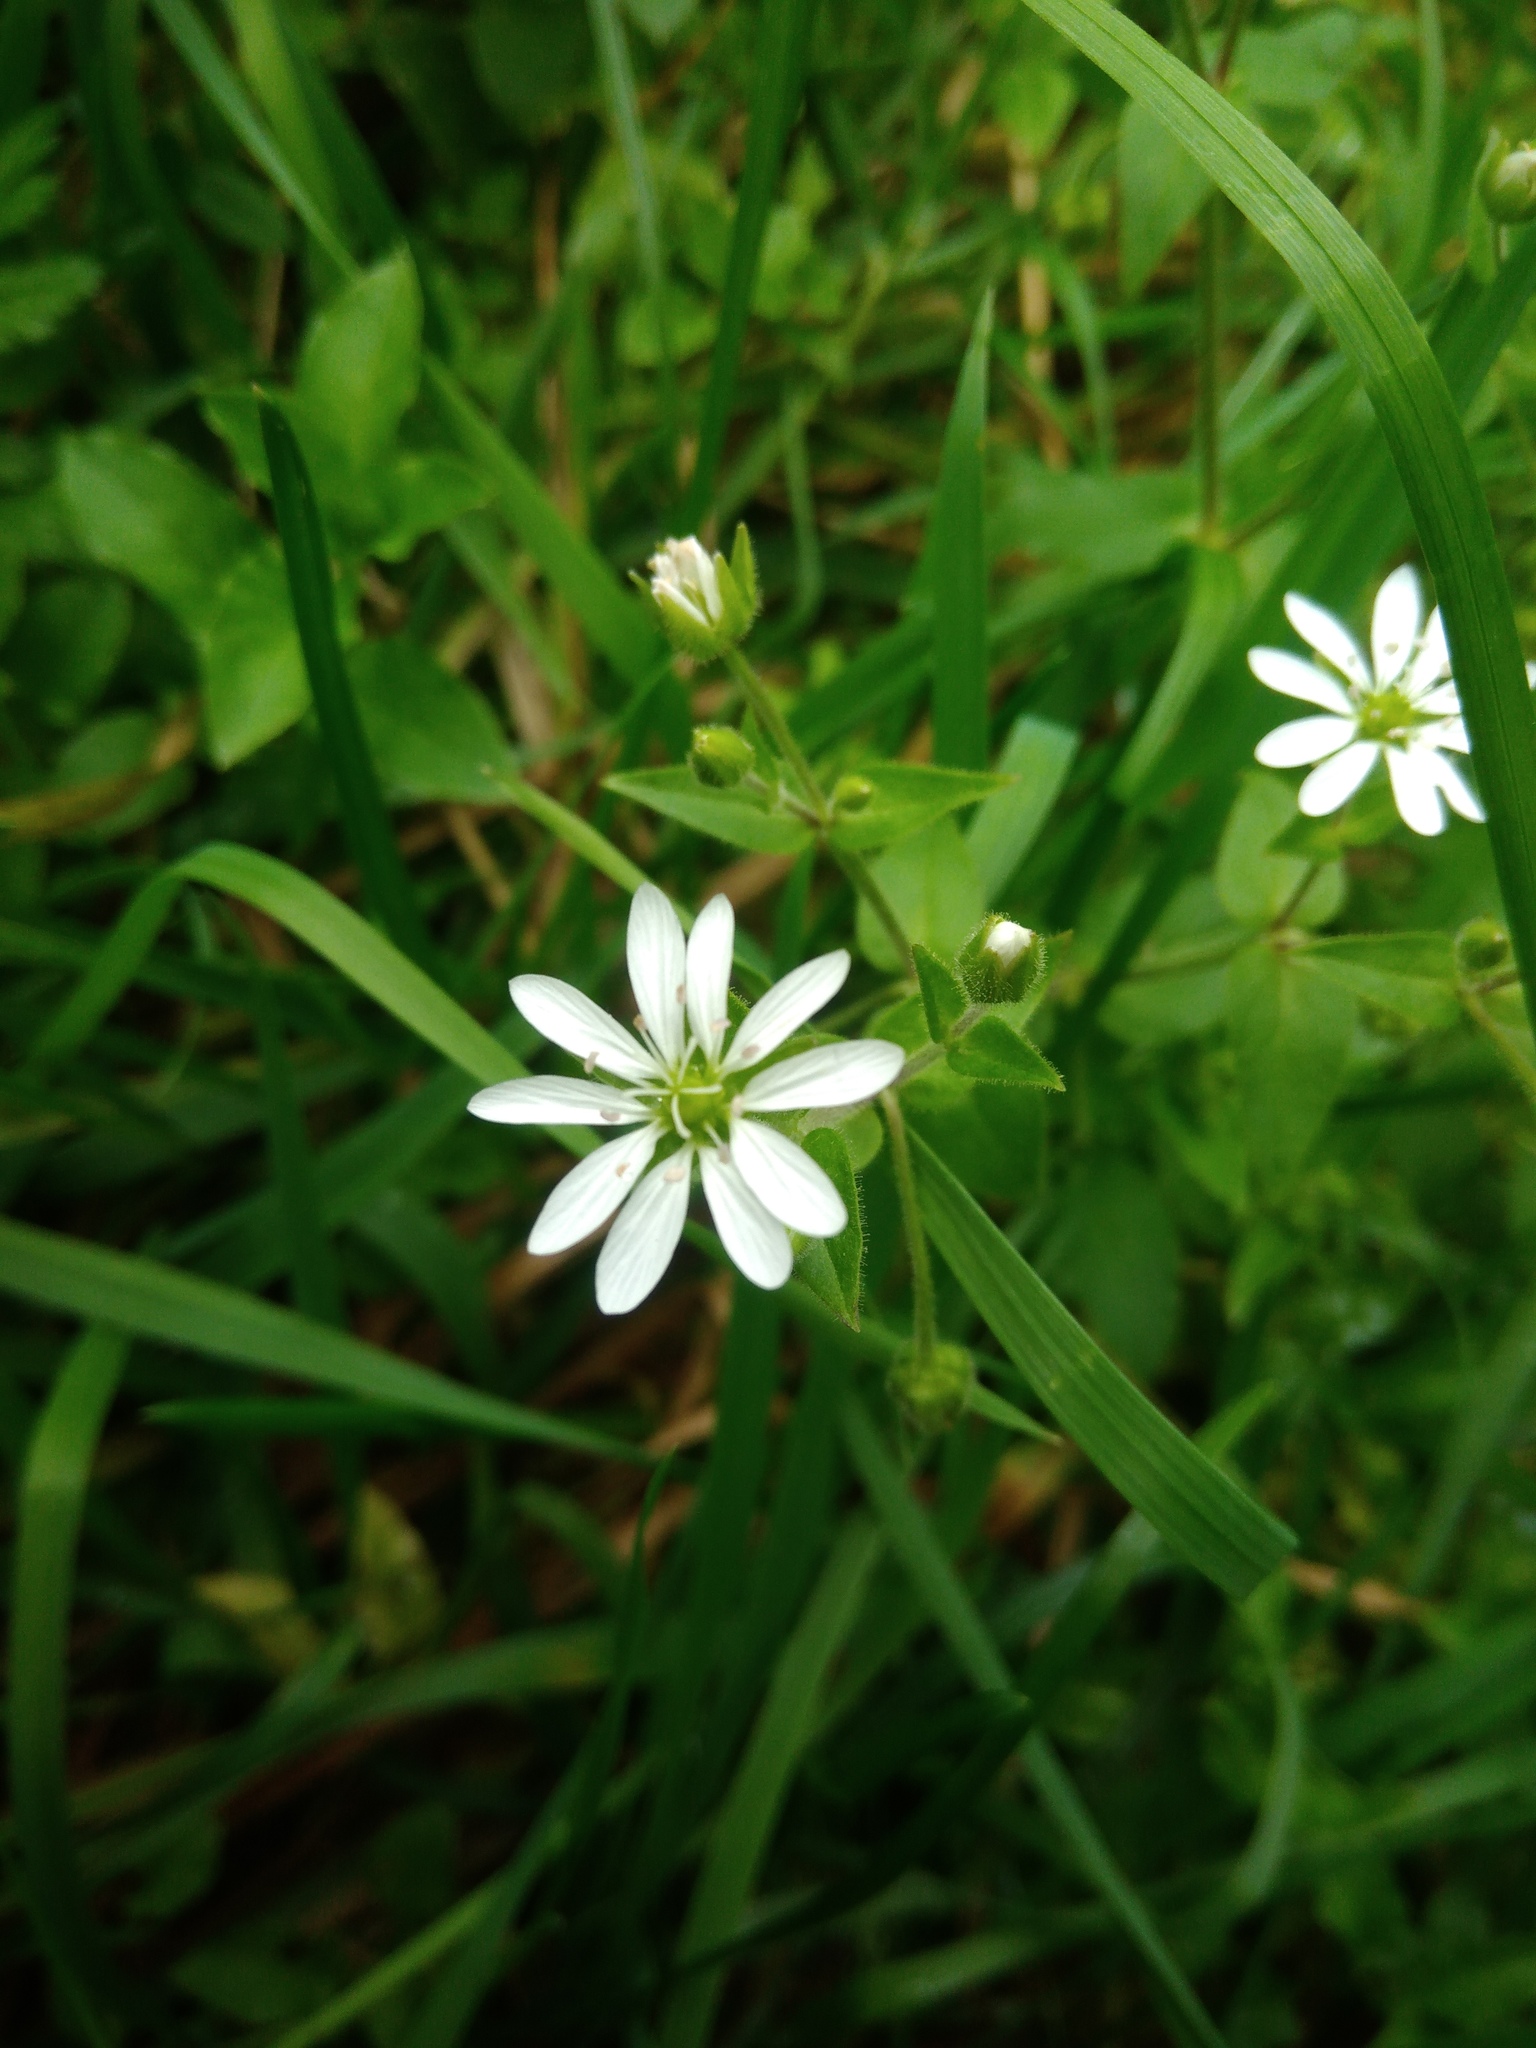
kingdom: Plantae
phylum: Tracheophyta
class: Magnoliopsida
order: Caryophyllales
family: Caryophyllaceae
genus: Stellaria
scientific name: Stellaria aquatica
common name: Water chickweed
